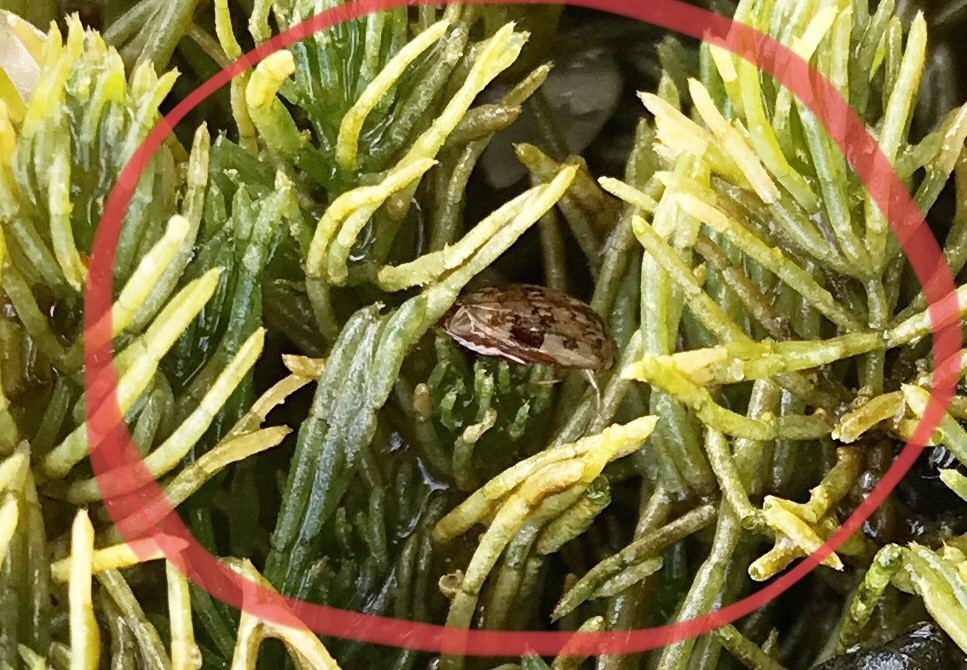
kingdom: Animalia
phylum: Arthropoda
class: Insecta
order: Coleoptera
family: Dytiscidae
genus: Laccophilus
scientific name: Laccophilus maculosus
